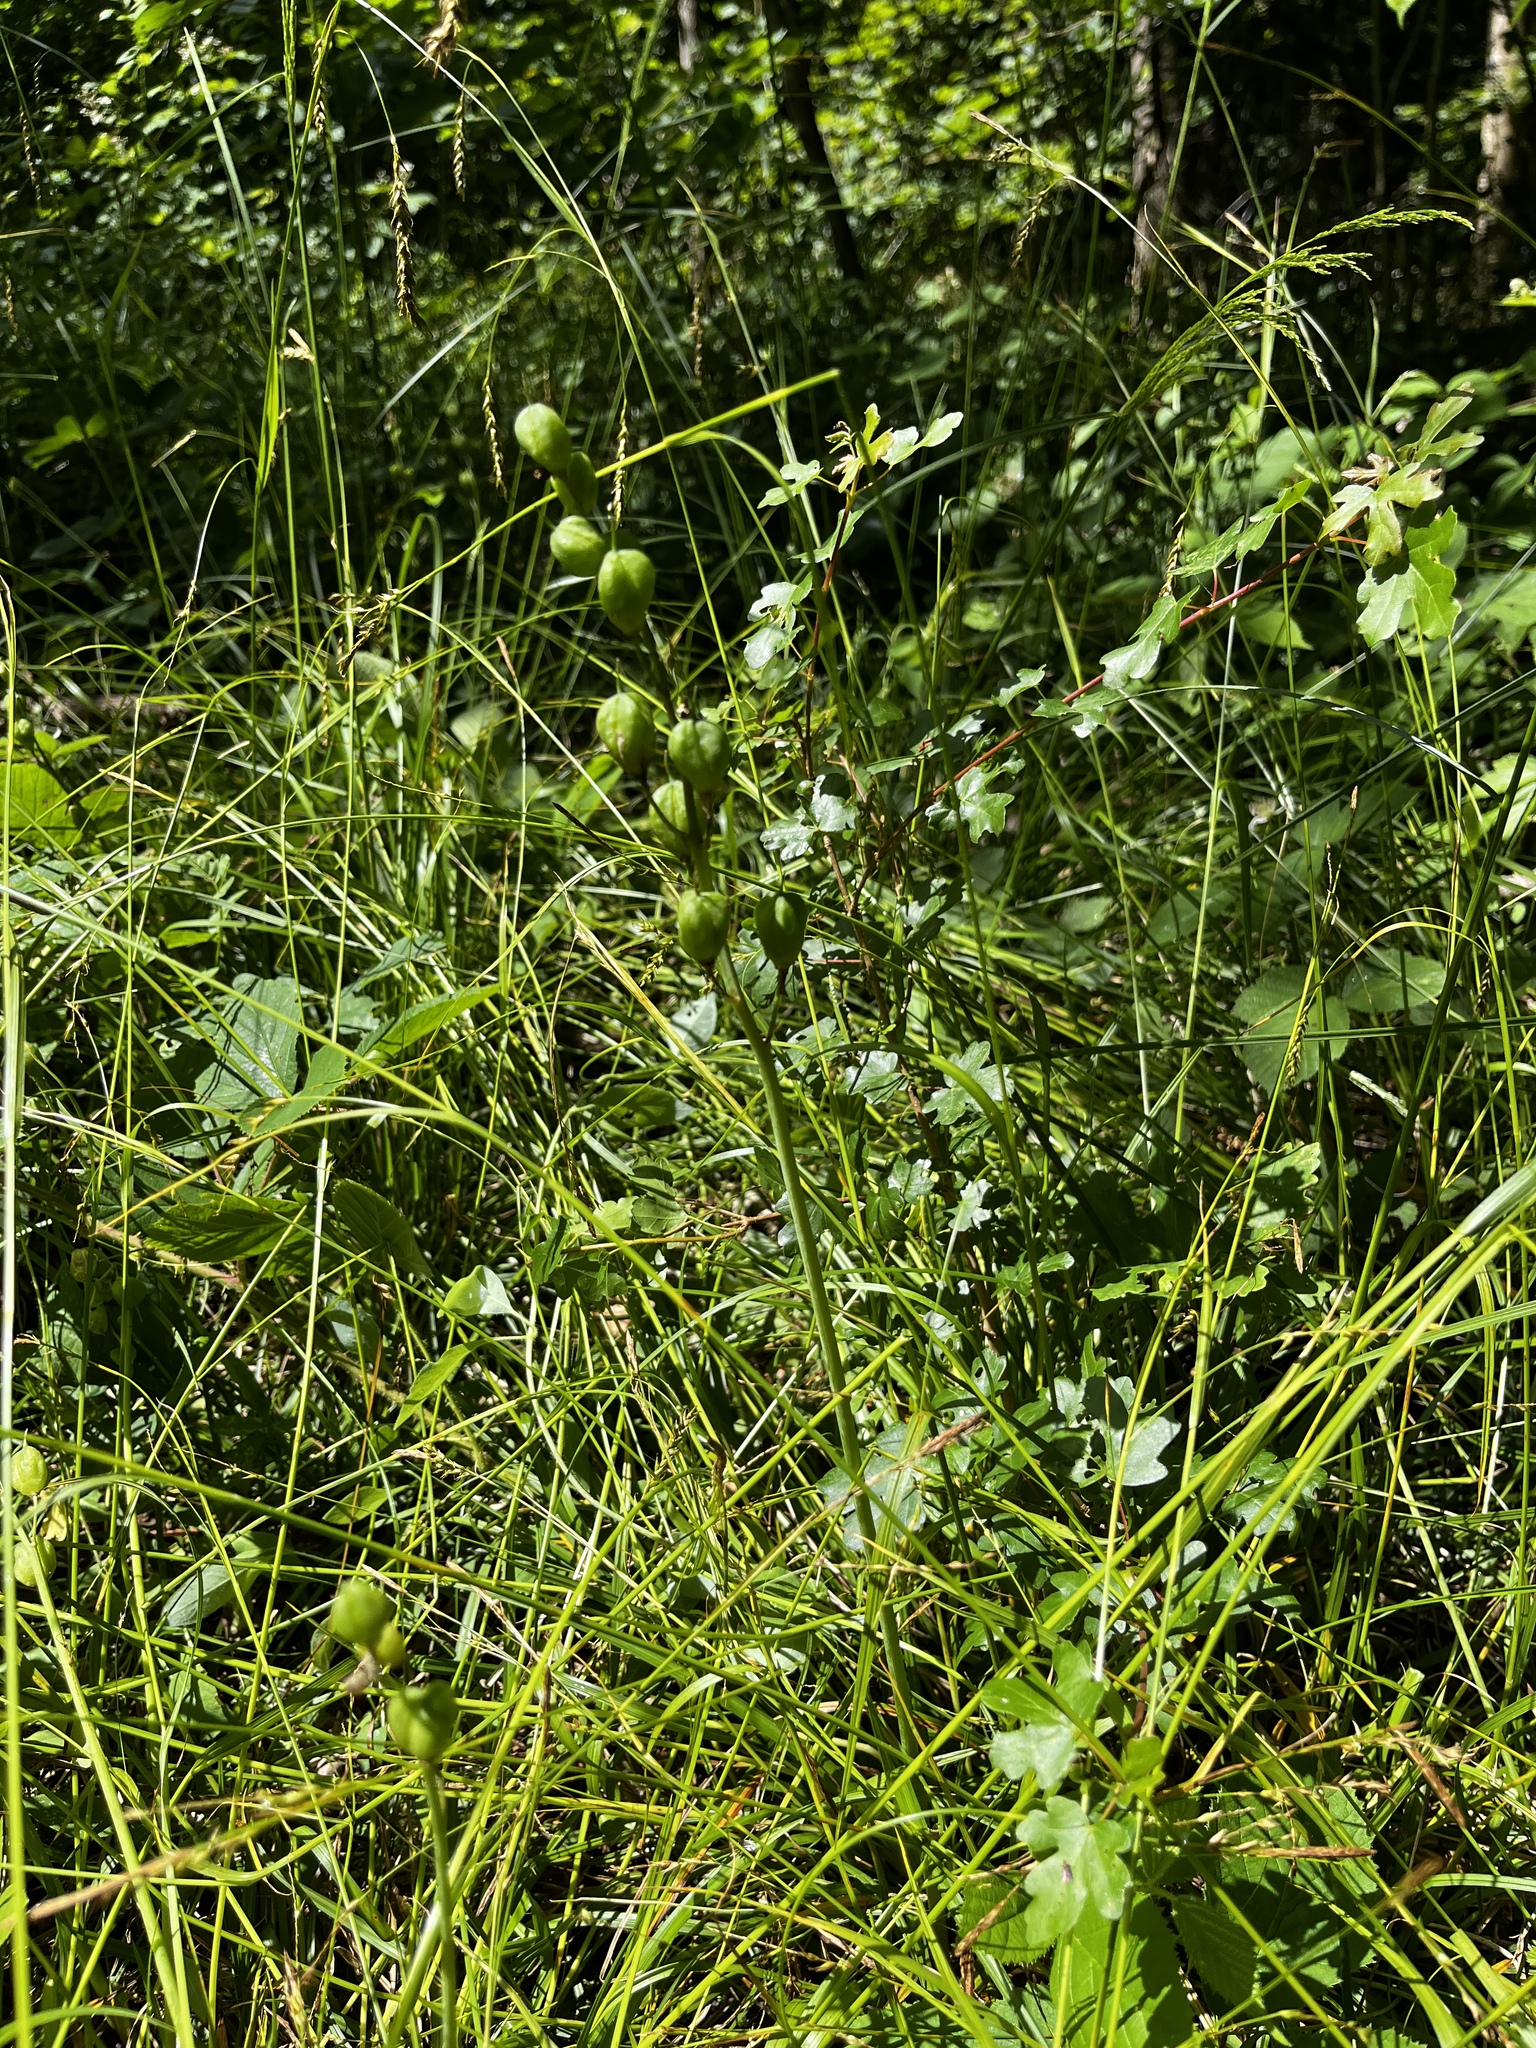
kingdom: Plantae
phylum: Tracheophyta
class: Liliopsida
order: Asparagales
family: Asparagaceae
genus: Hyacinthoides
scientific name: Hyacinthoides non-scripta
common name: Bluebell
